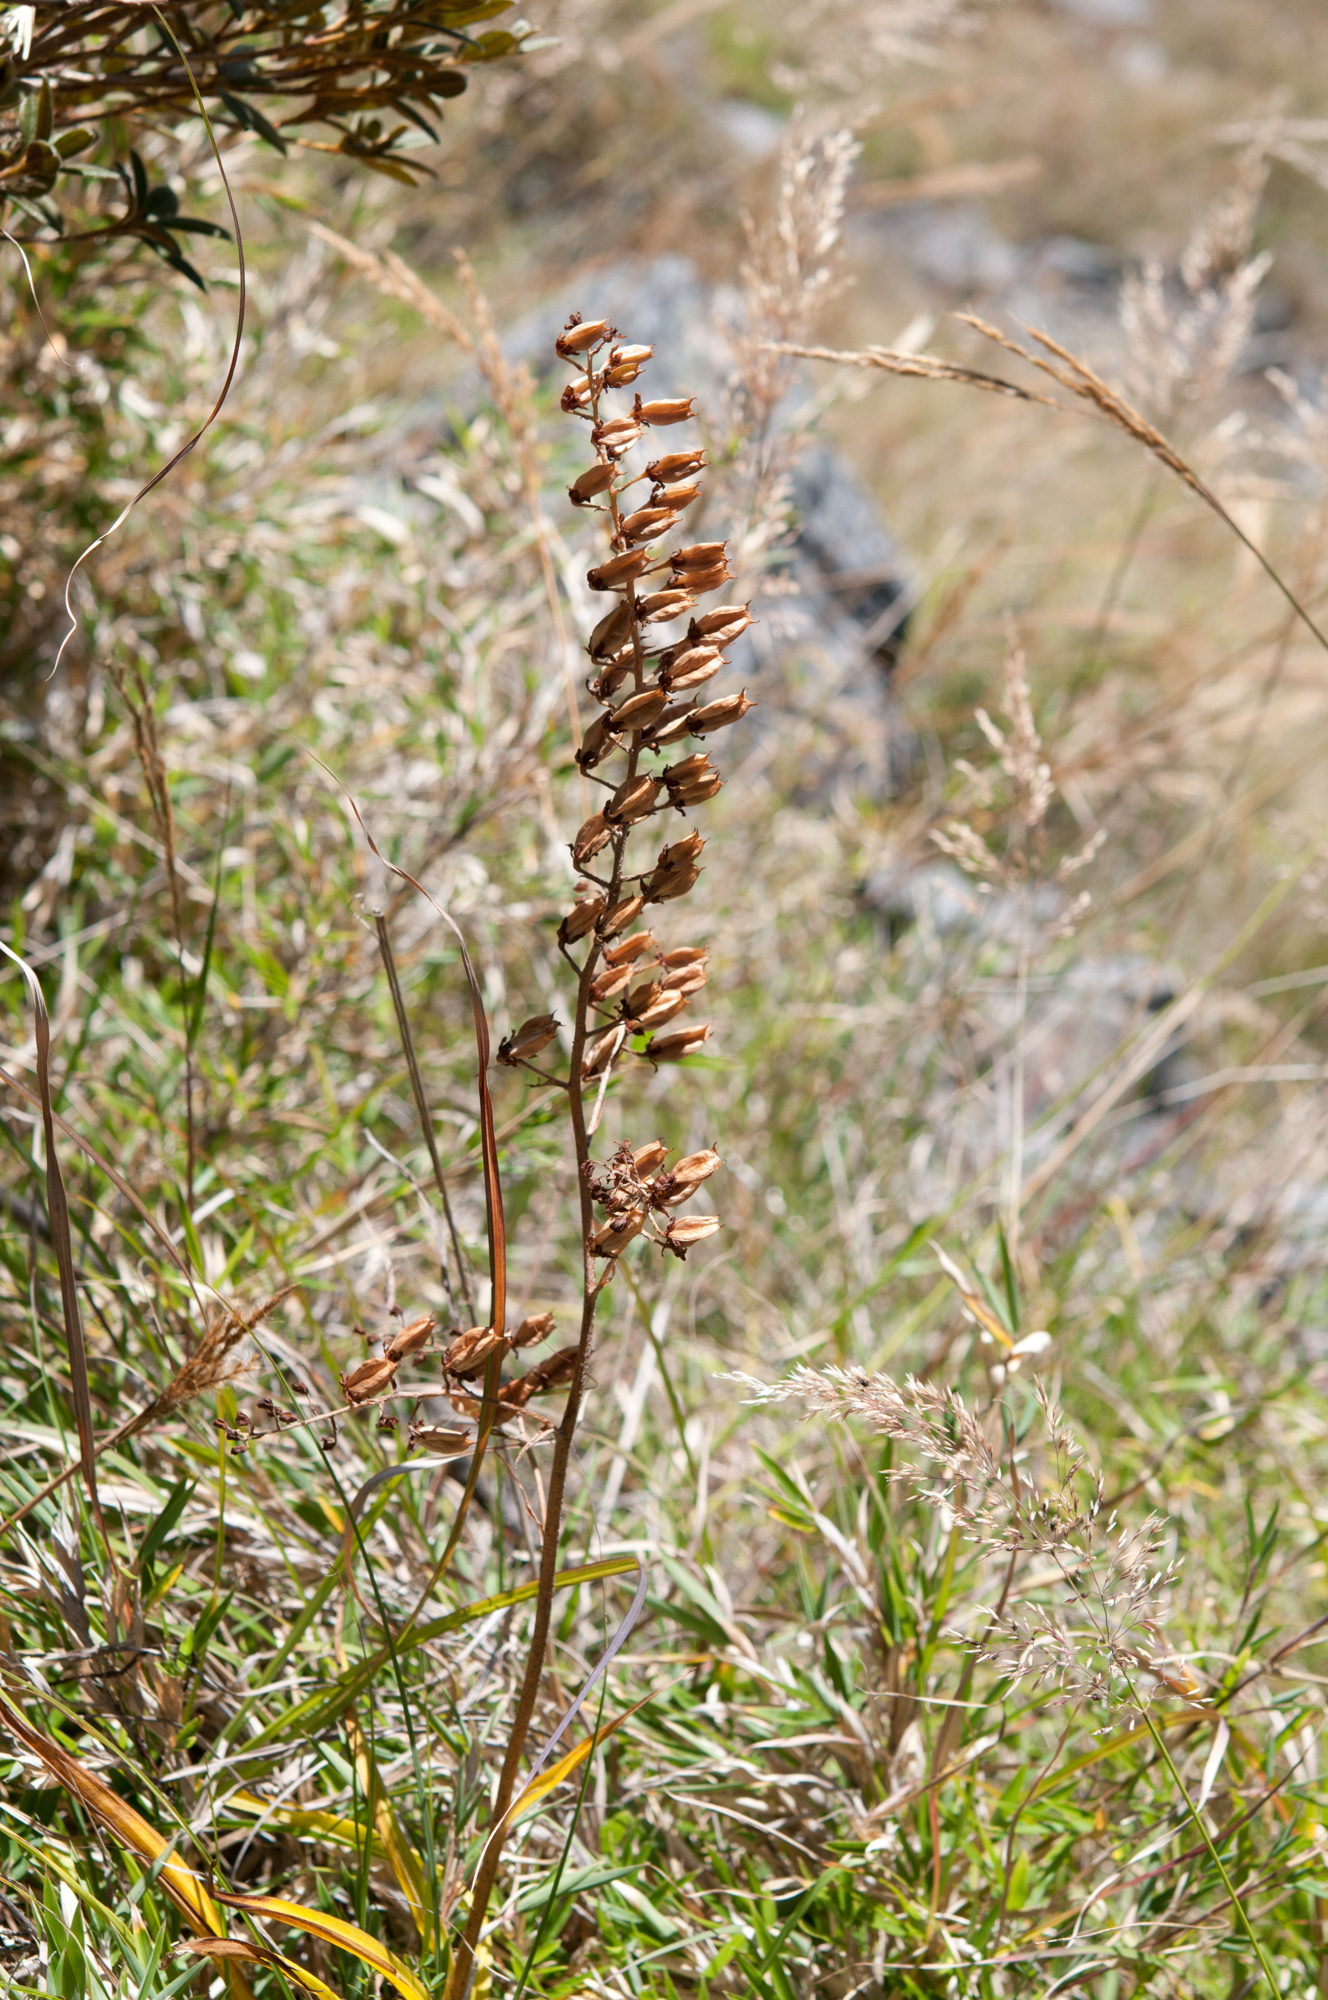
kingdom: Plantae
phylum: Tracheophyta
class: Liliopsida
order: Liliales
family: Melanthiaceae
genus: Veratrum
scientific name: Veratrum formosanum
